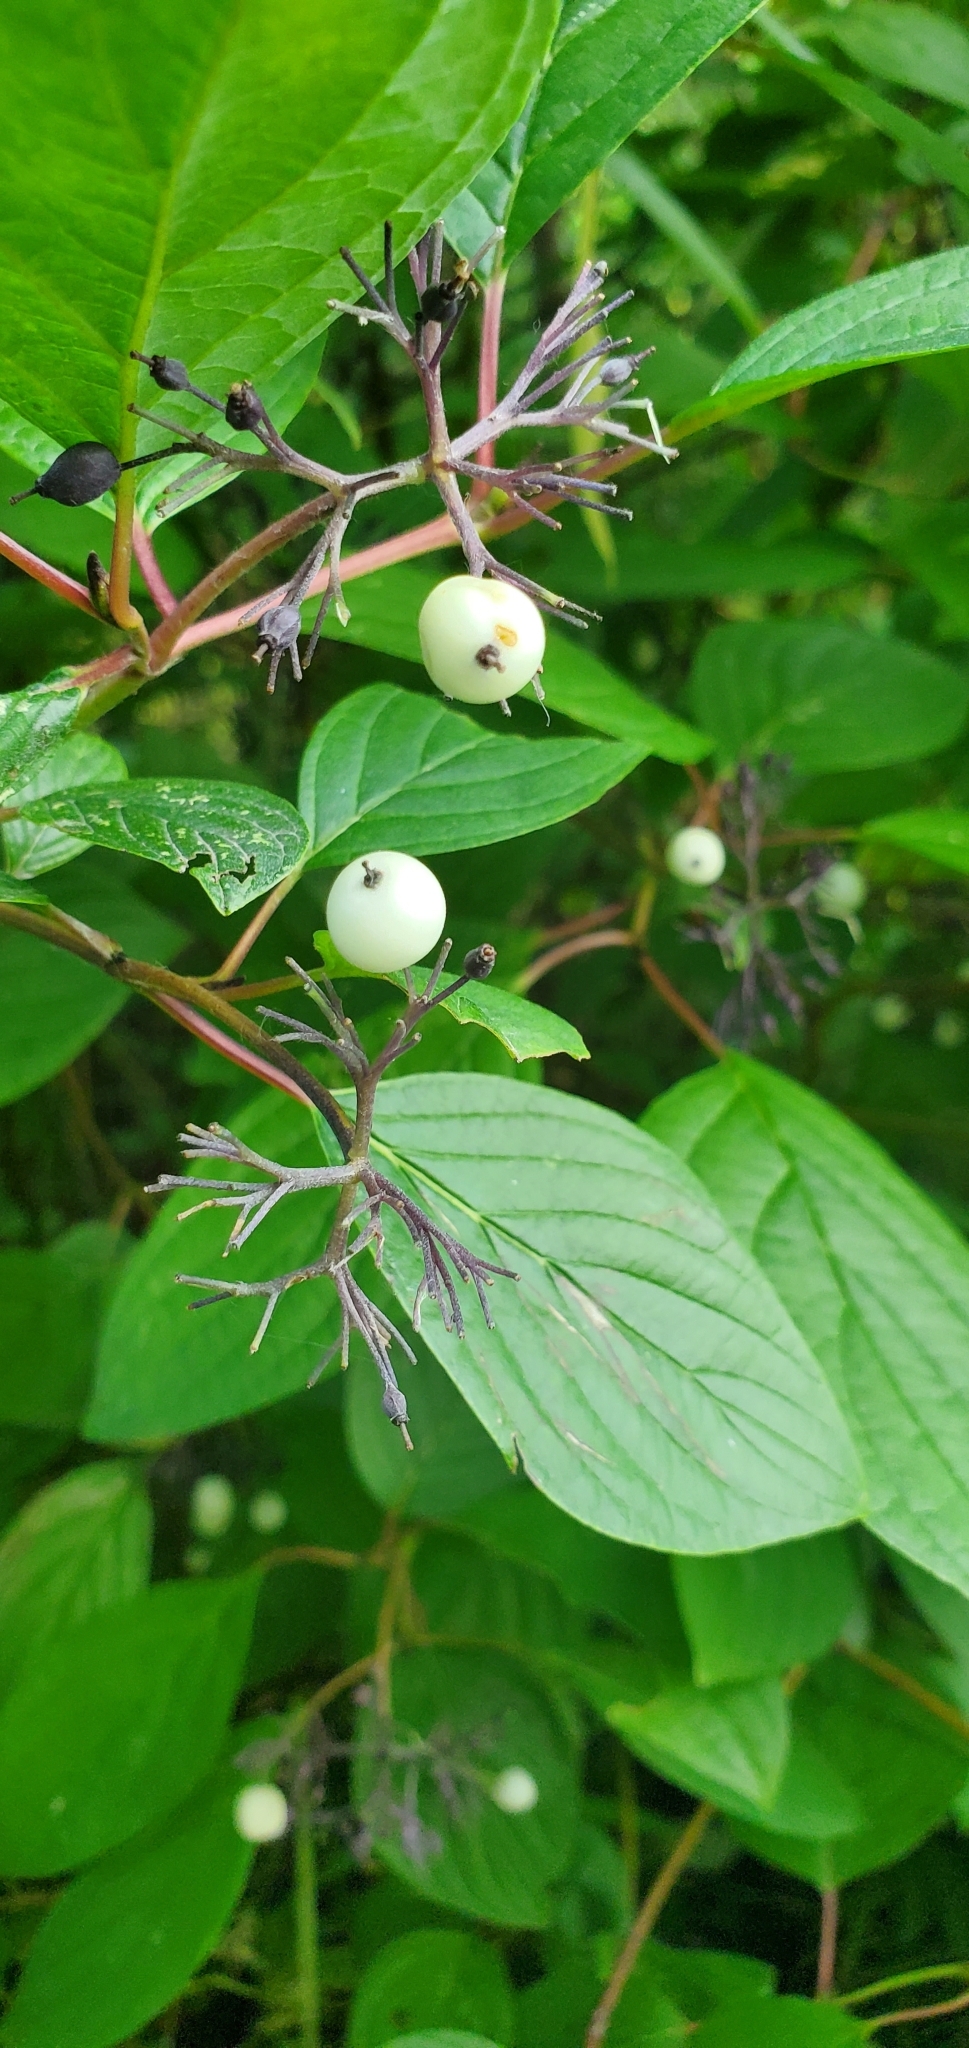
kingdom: Plantae
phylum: Tracheophyta
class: Magnoliopsida
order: Cornales
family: Cornaceae
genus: Cornus
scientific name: Cornus sericea
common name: Red-osier dogwood
